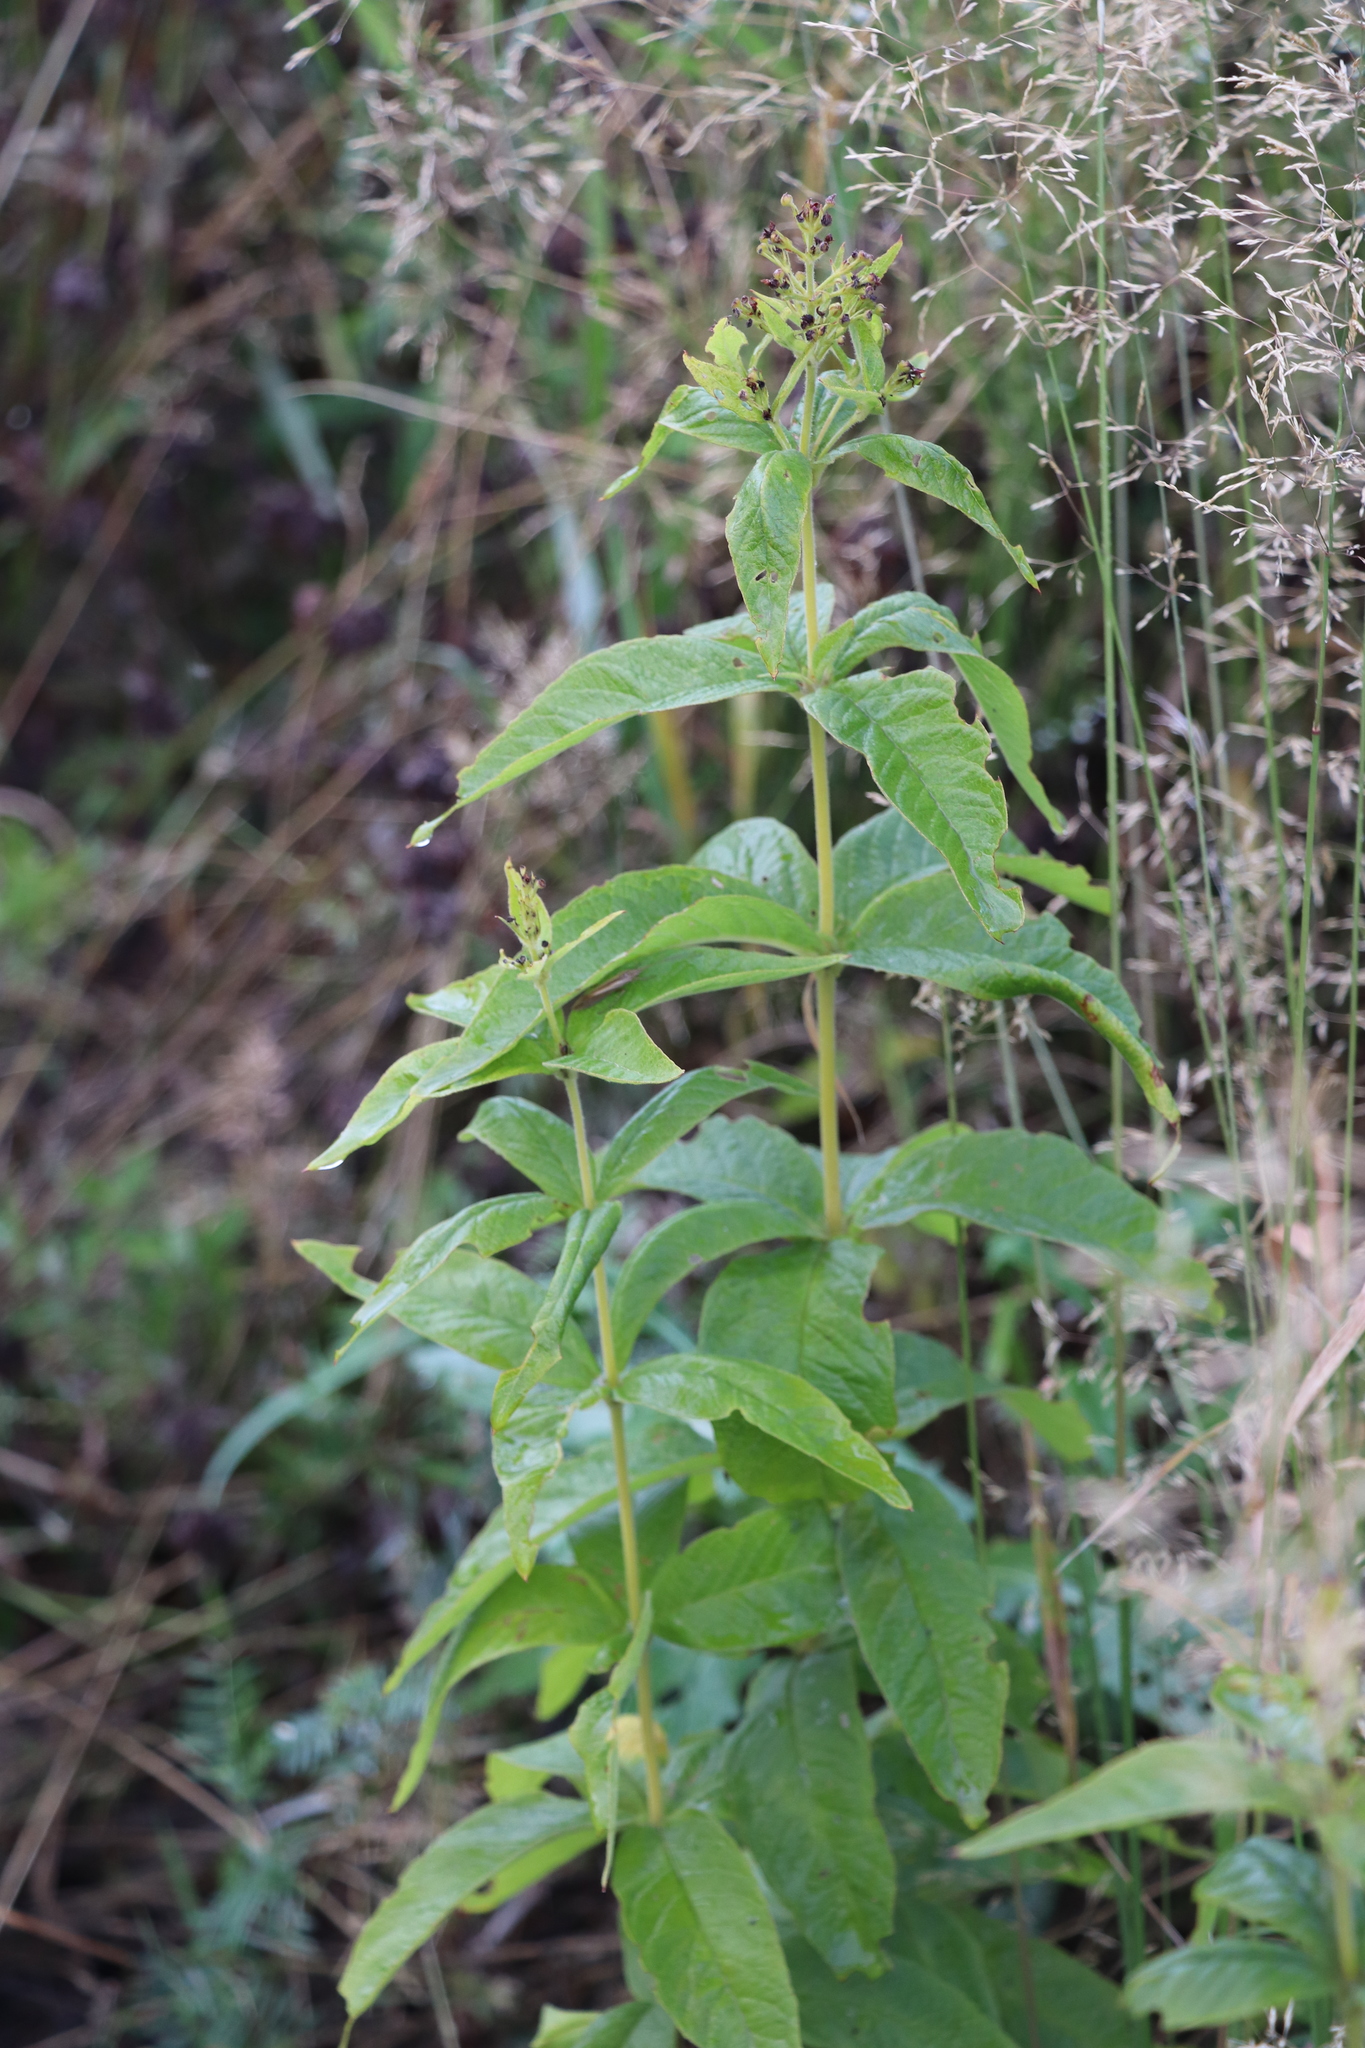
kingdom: Plantae
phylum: Tracheophyta
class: Magnoliopsida
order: Ericales
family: Primulaceae
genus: Lysimachia
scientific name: Lysimachia vulgaris
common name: Yellow loosestrife
